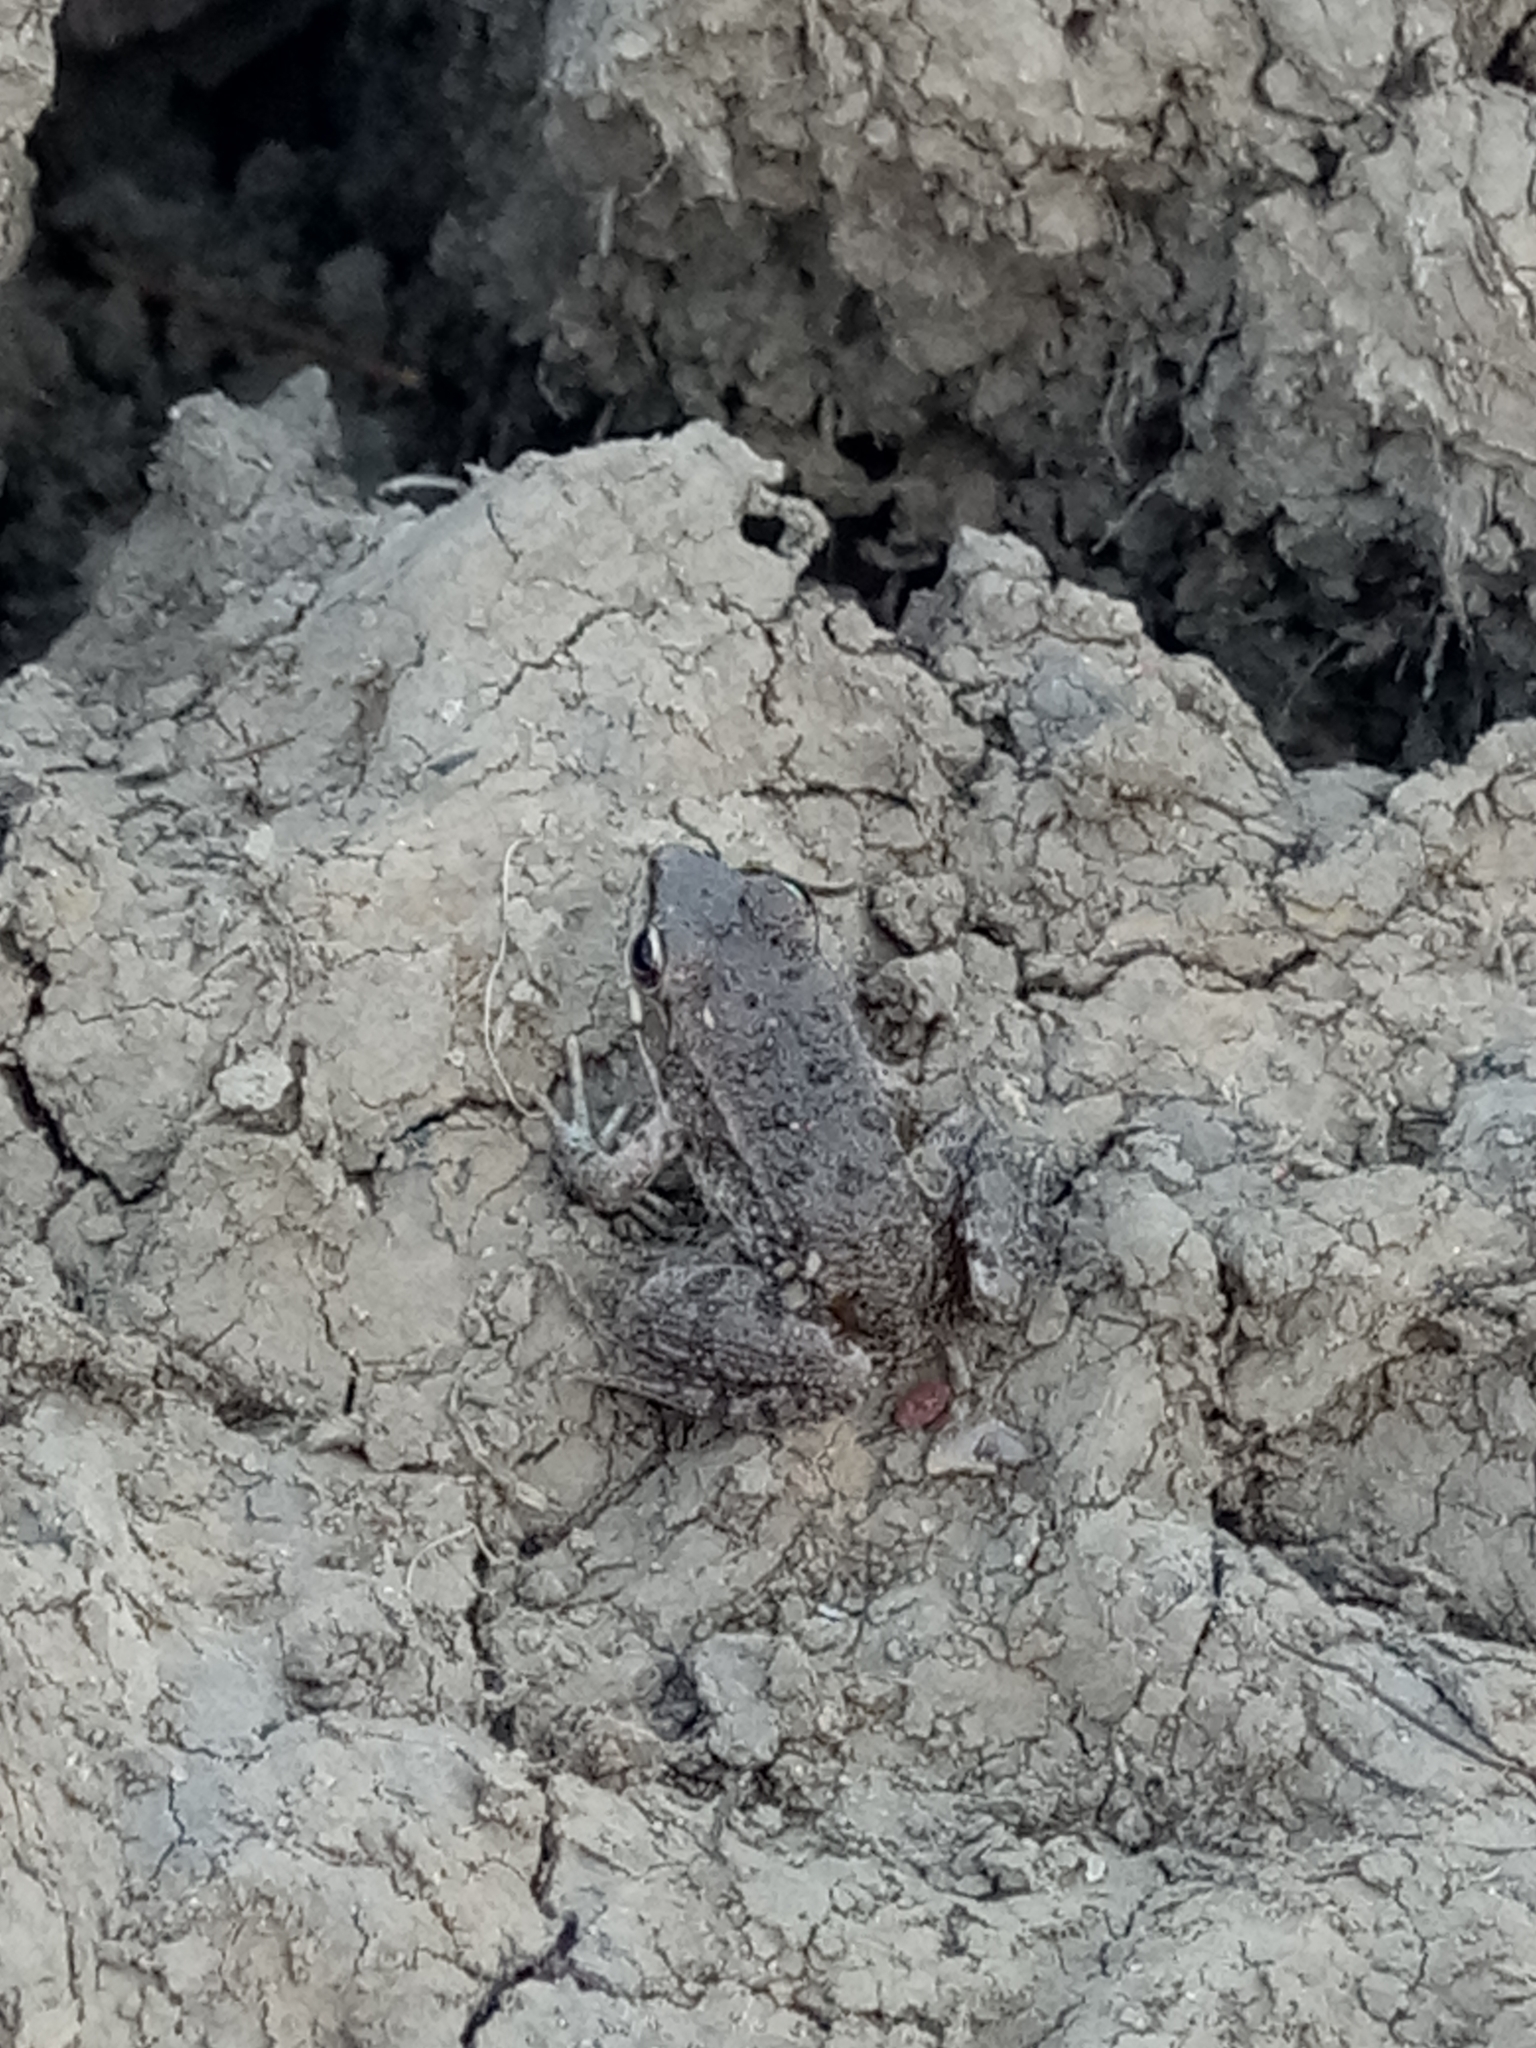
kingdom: Animalia
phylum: Chordata
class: Amphibia
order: Anura
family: Ranidae
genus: Pelophylax
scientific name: Pelophylax saharicus
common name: Sahara frog
